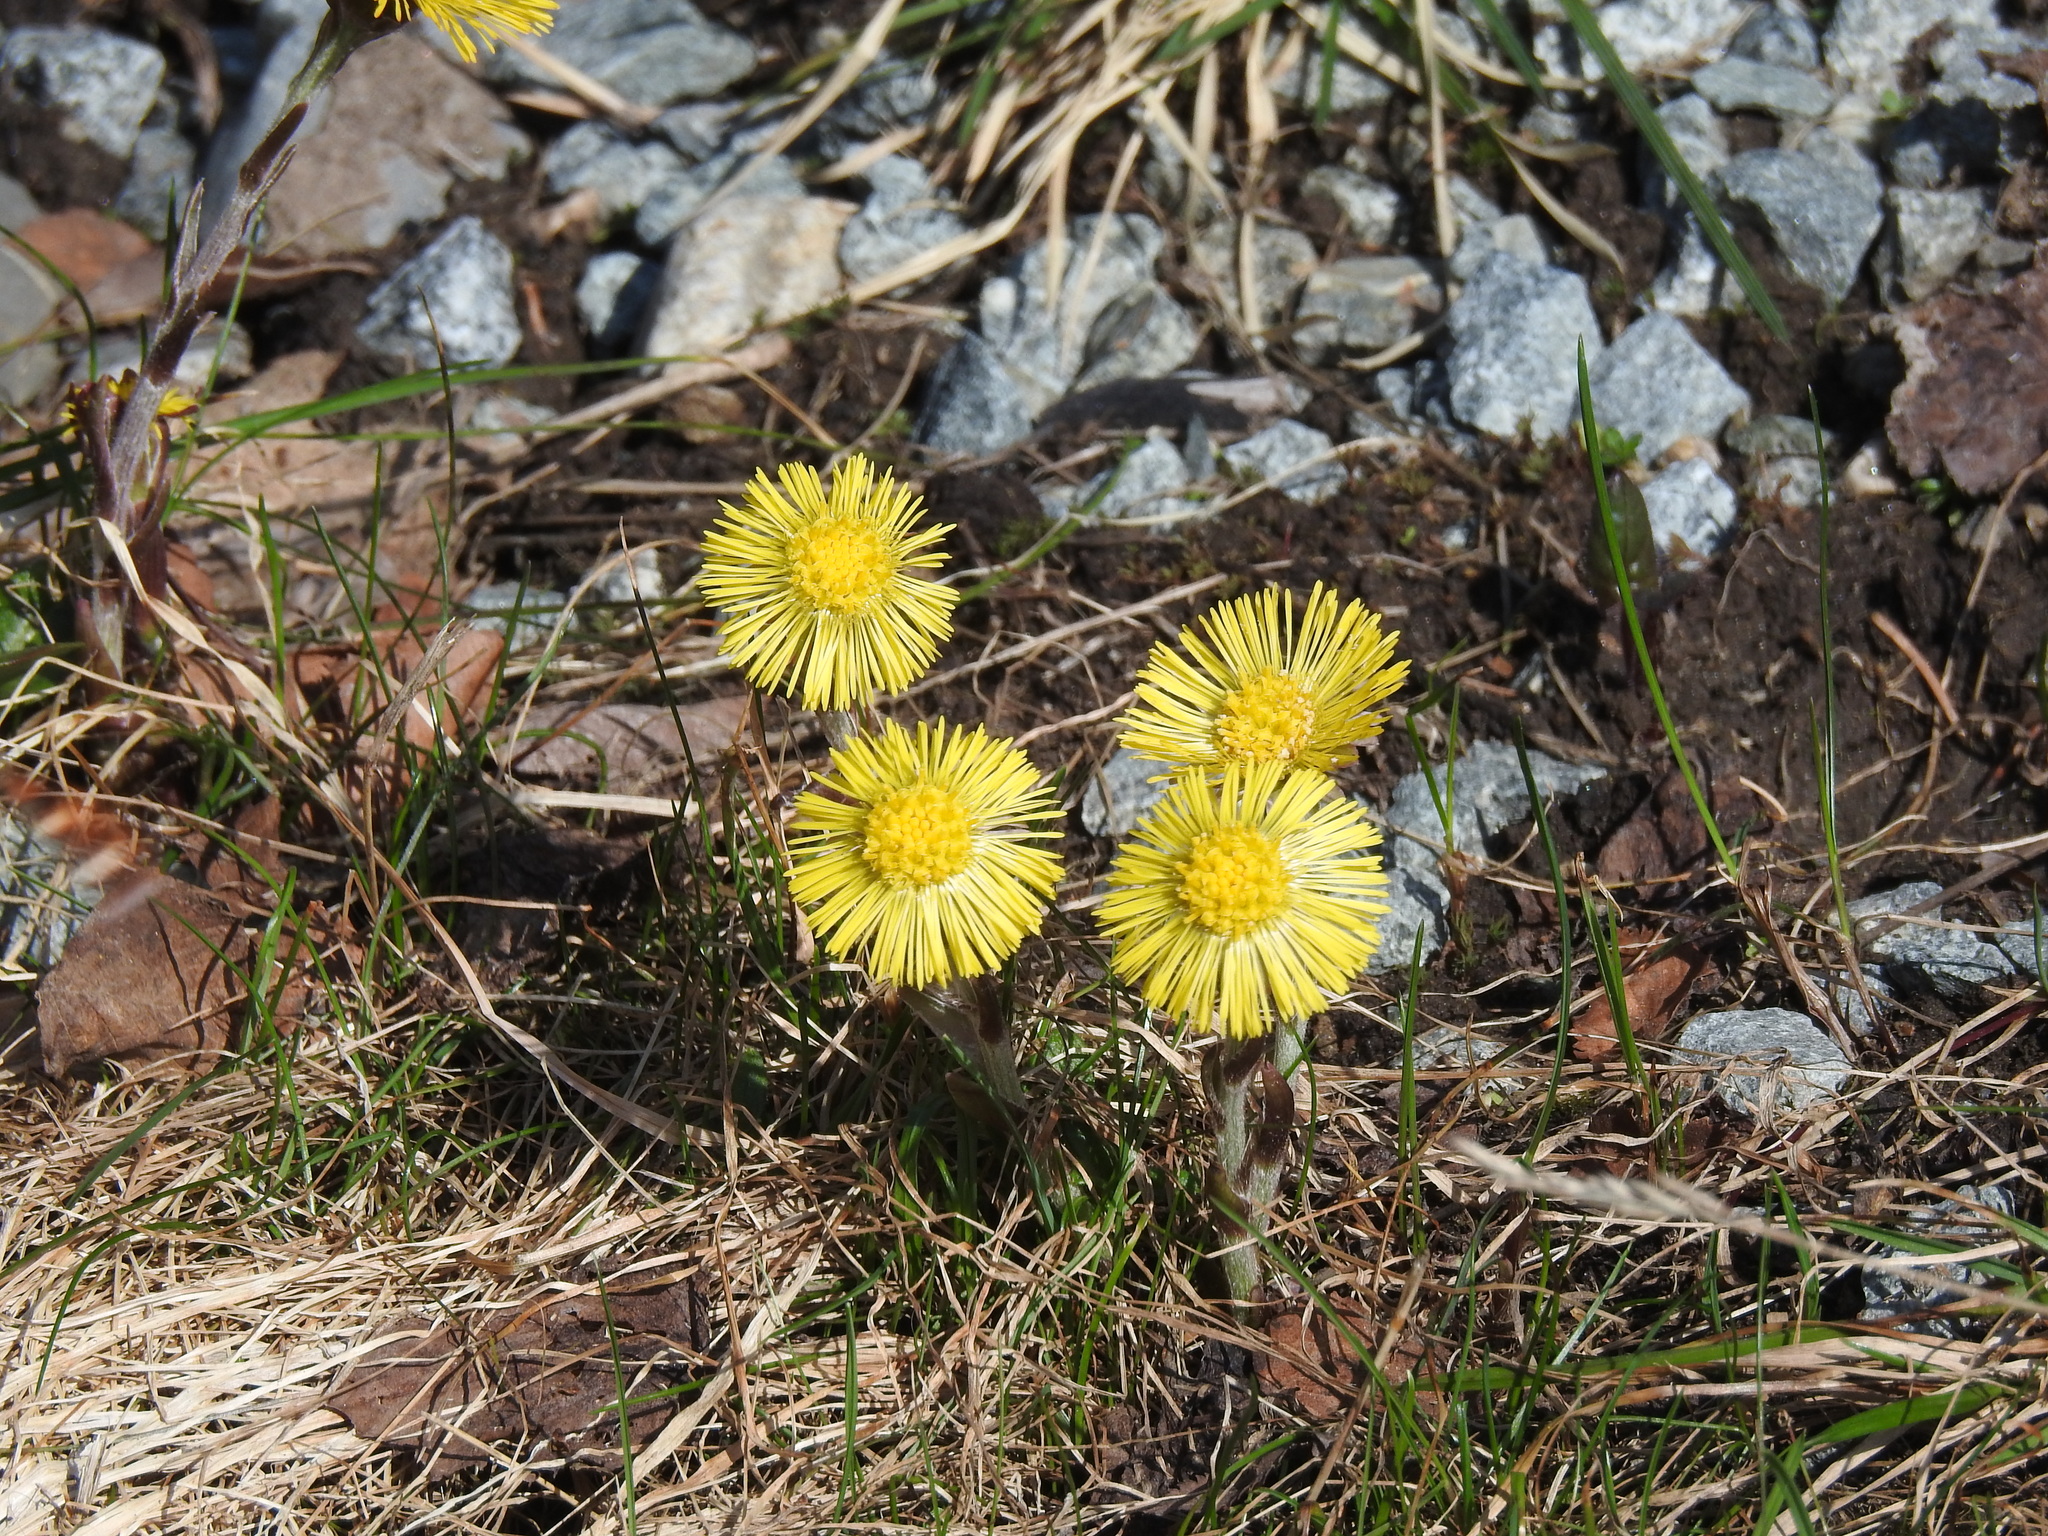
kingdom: Plantae
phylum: Tracheophyta
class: Magnoliopsida
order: Asterales
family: Asteraceae
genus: Tussilago
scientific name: Tussilago farfara
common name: Coltsfoot
